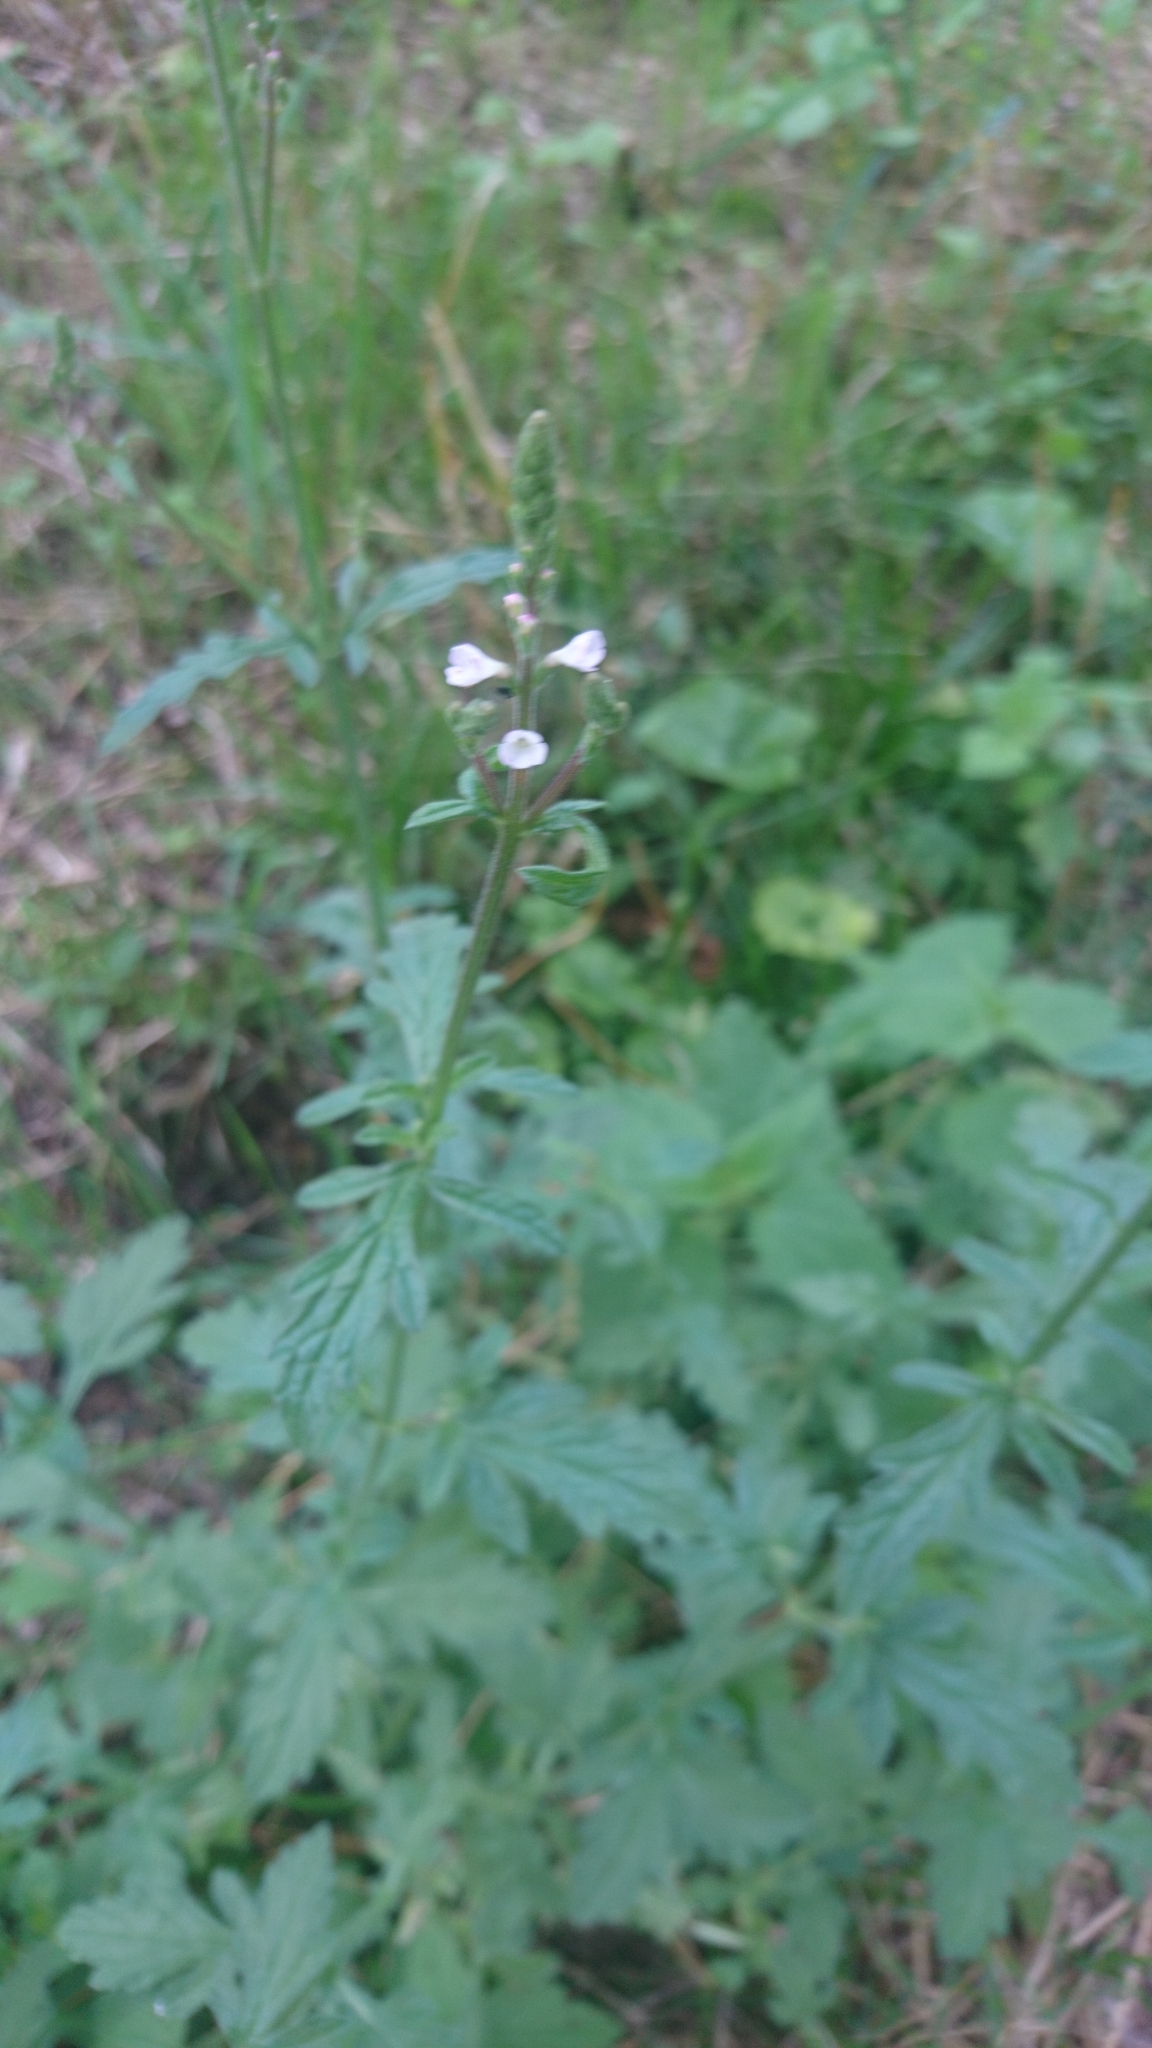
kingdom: Plantae
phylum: Tracheophyta
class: Magnoliopsida
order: Lamiales
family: Verbenaceae
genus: Verbena
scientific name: Verbena officinalis
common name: Vervain
